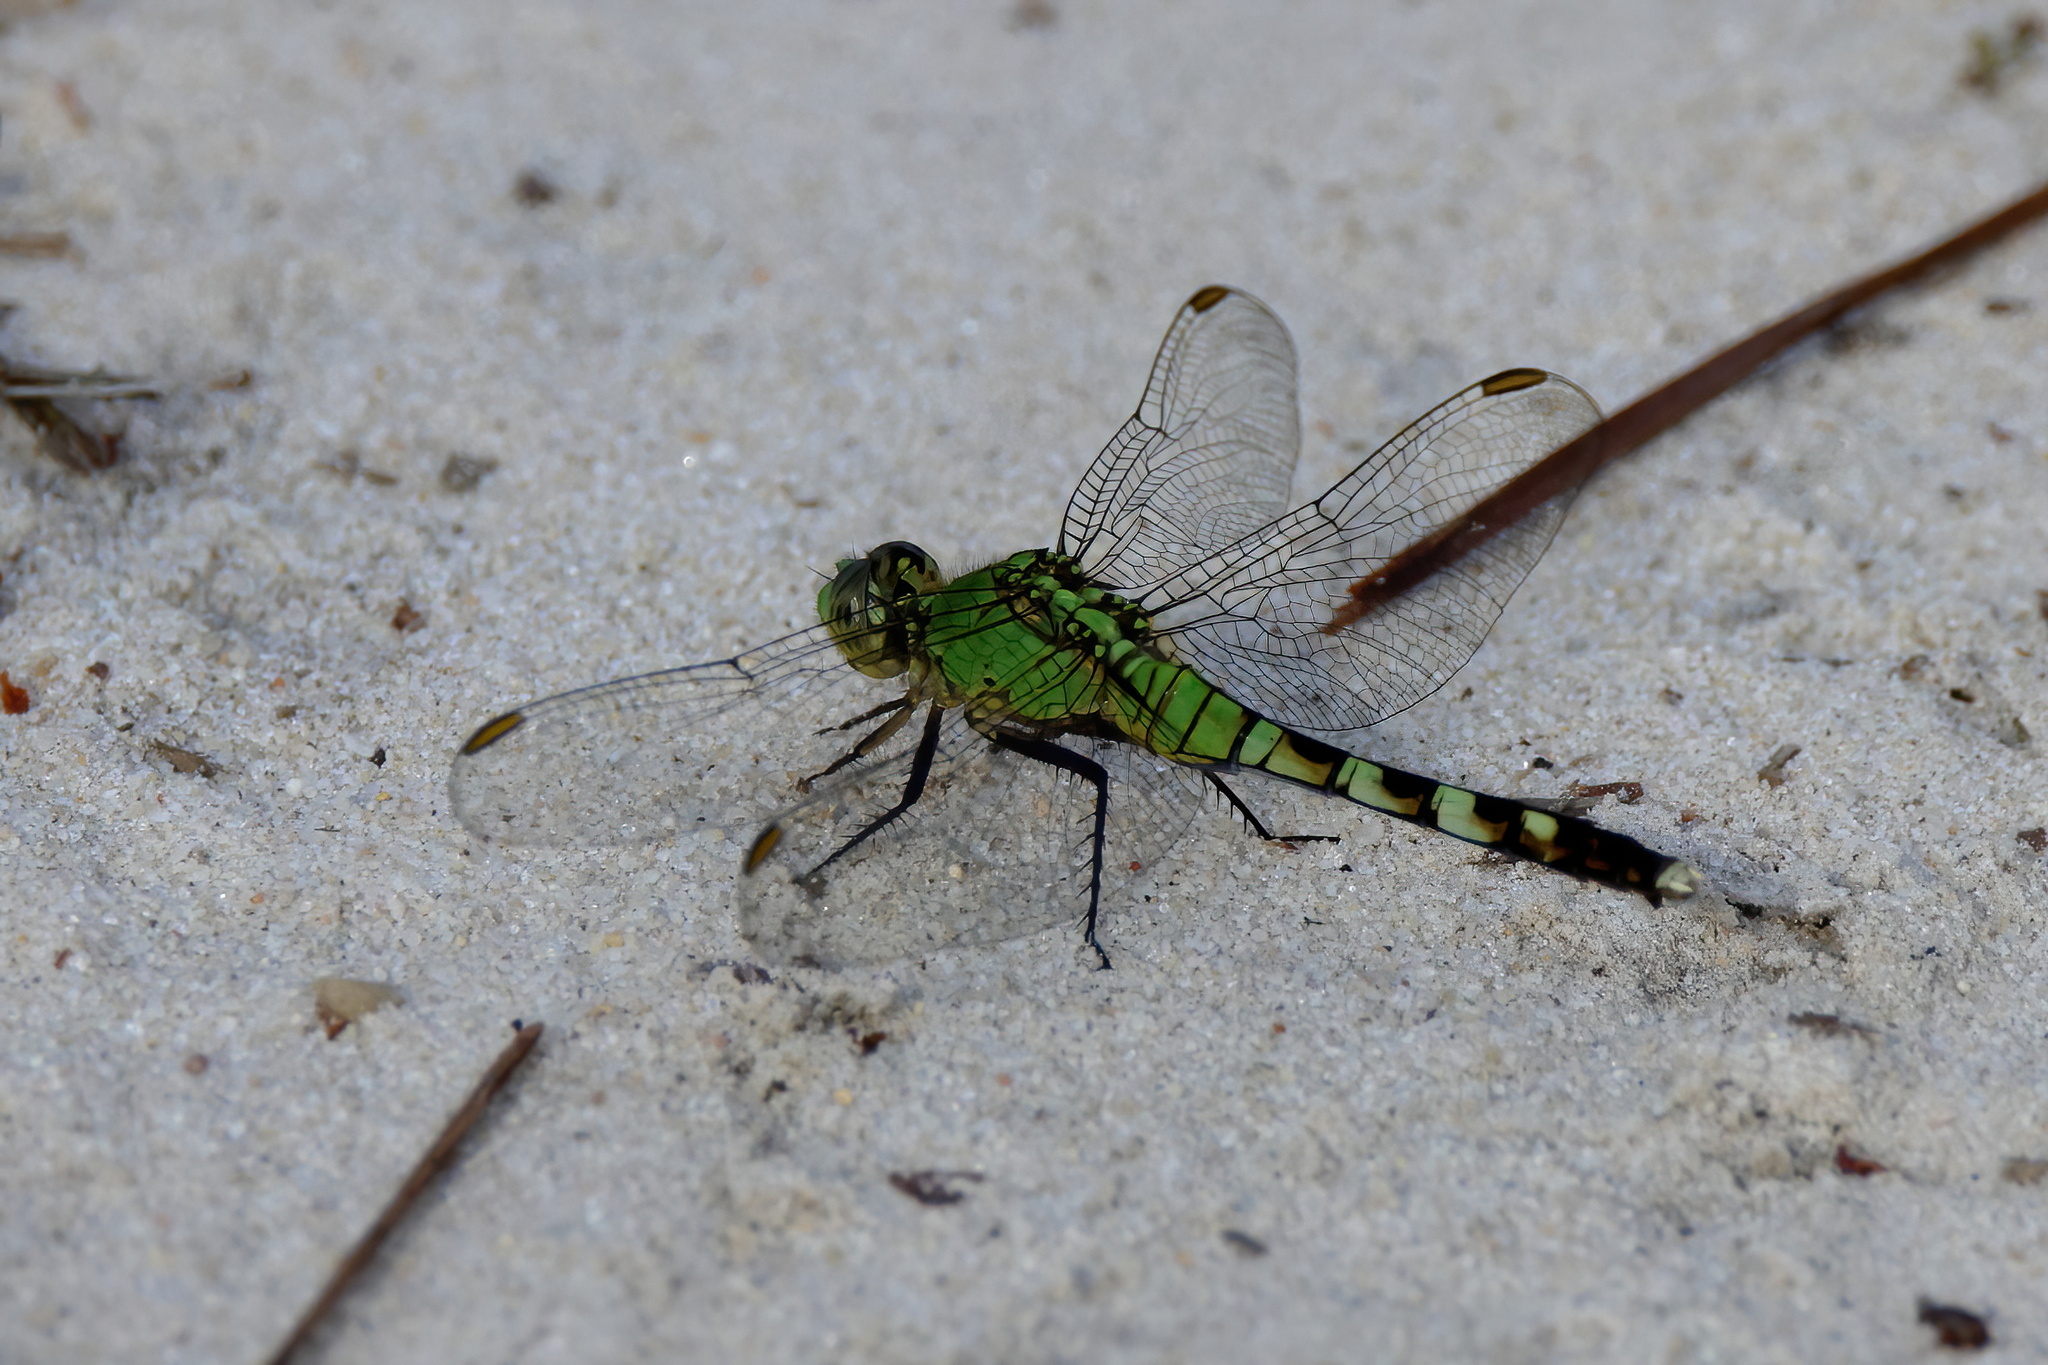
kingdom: Animalia
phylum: Arthropoda
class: Insecta
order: Odonata
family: Libellulidae
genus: Erythemis
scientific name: Erythemis simplicicollis
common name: Eastern pondhawk
